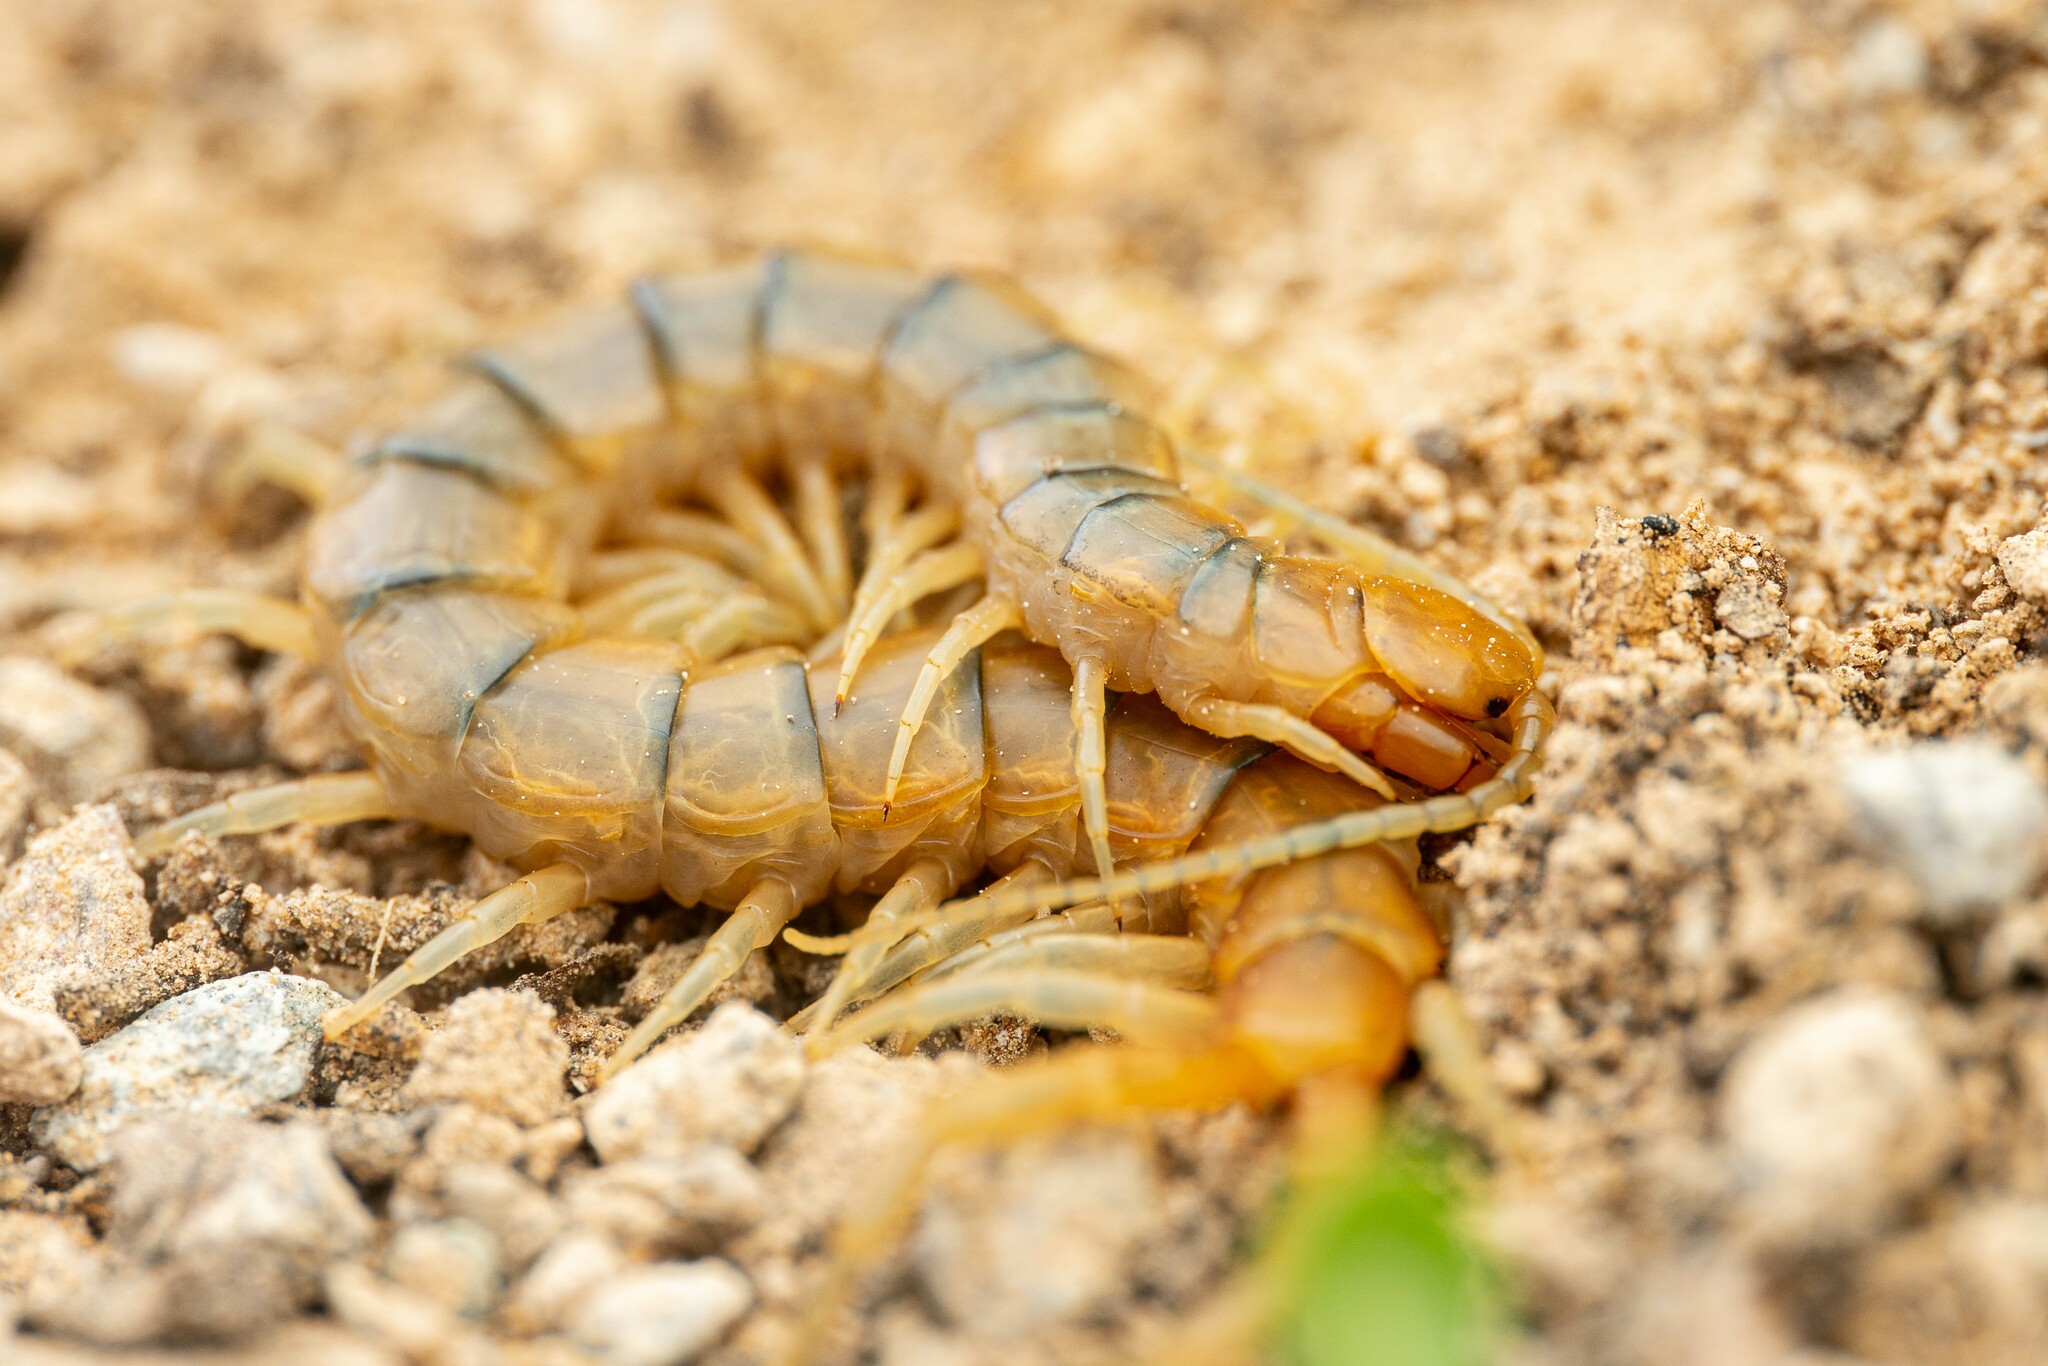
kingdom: Animalia
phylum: Arthropoda
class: Chilopoda
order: Scolopendromorpha
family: Scolopendridae
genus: Scolopendra
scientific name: Scolopendra polymorpha
